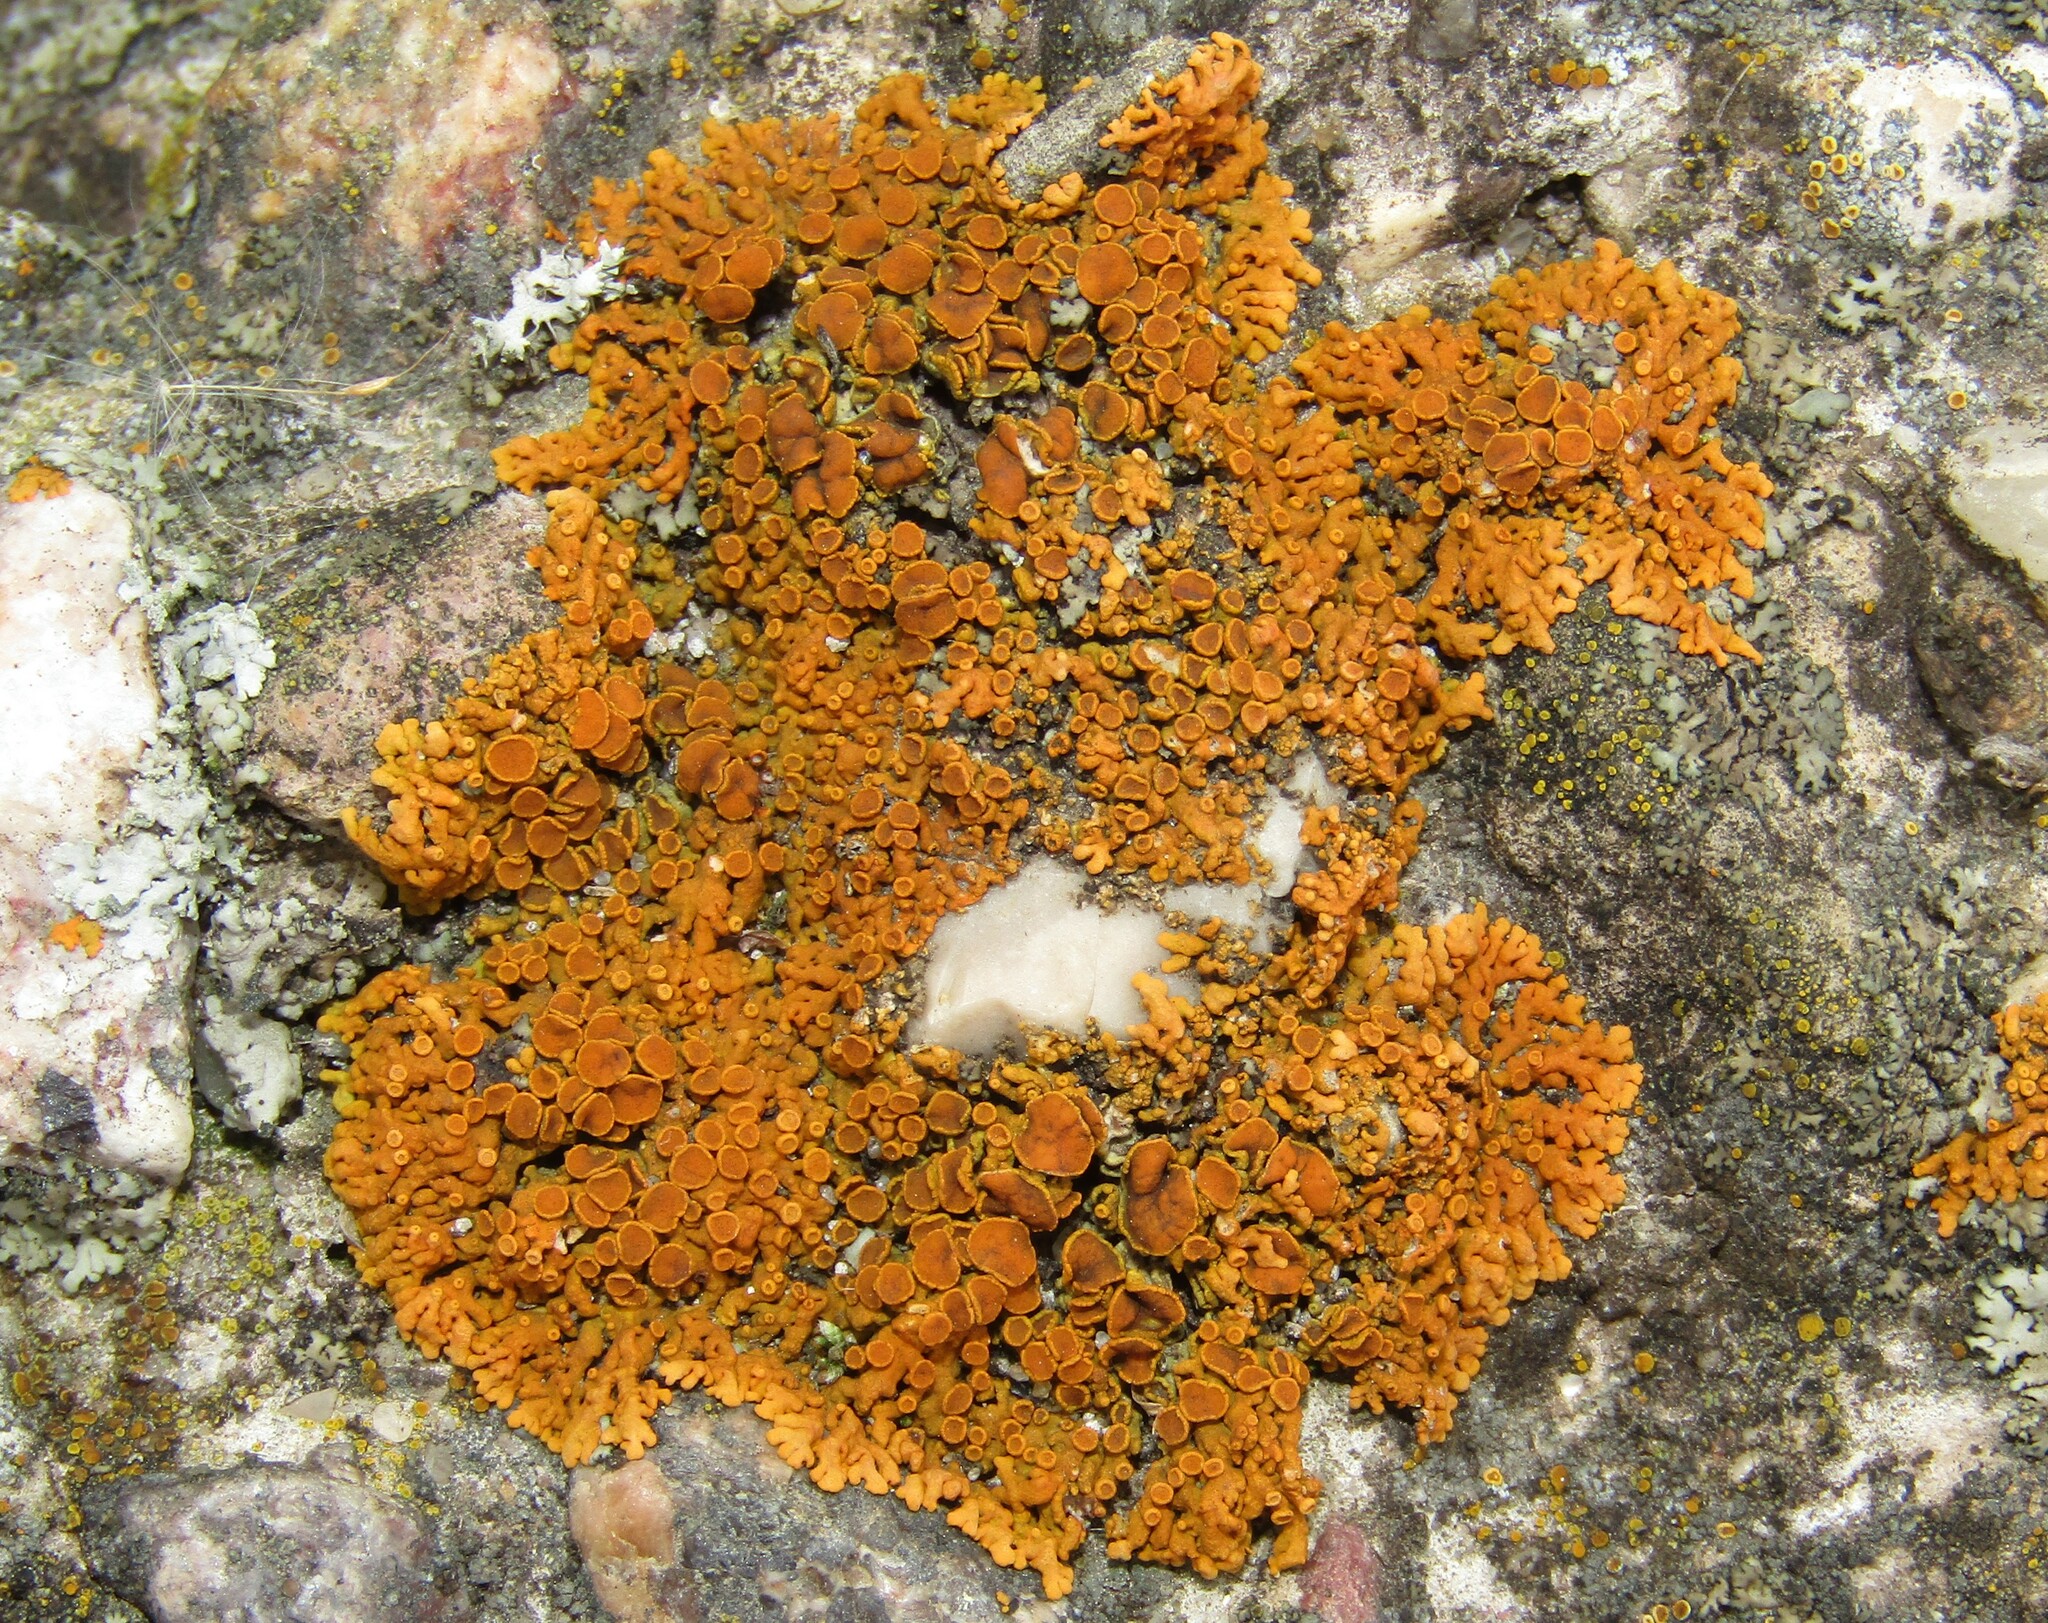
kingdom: Fungi
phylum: Ascomycota
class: Lecanoromycetes
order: Teloschistales
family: Teloschistaceae
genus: Xanthoria
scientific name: Xanthoria elegans
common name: Elegant sunburst lichen
